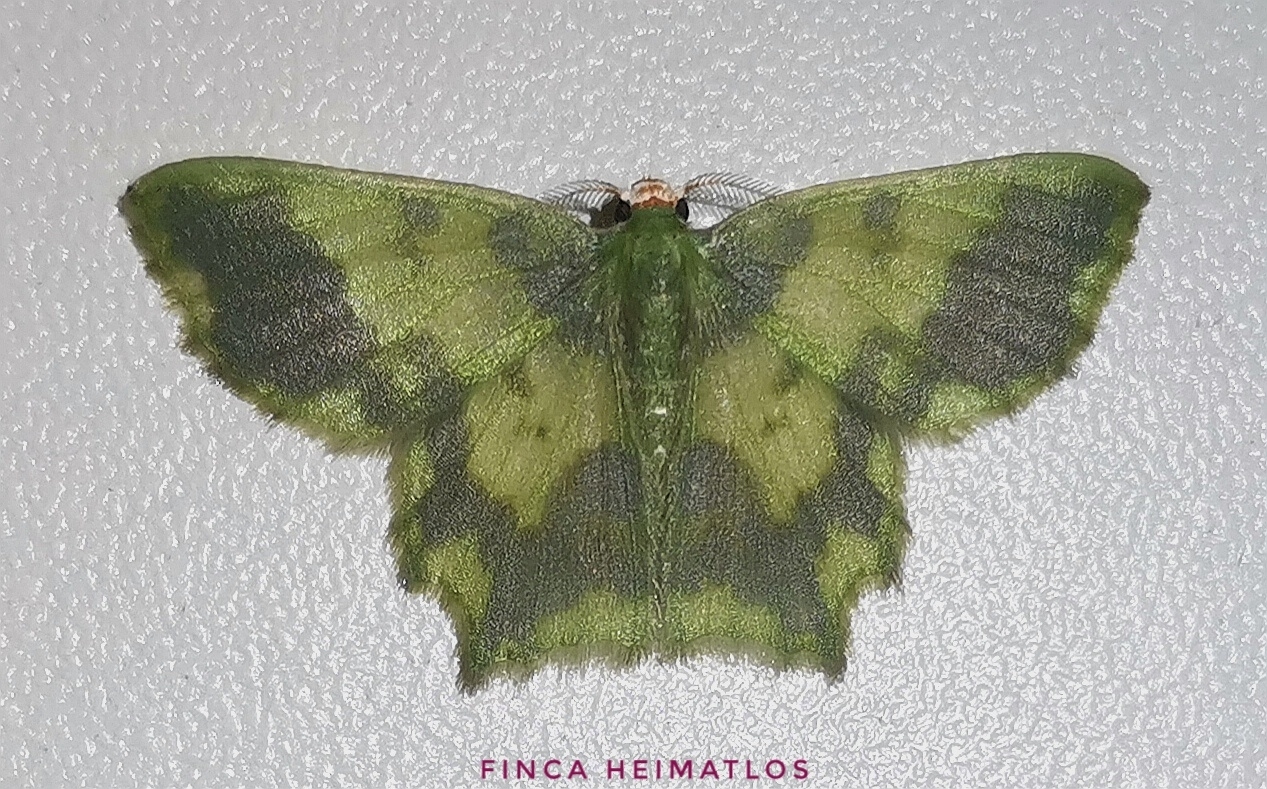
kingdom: Animalia
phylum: Arthropoda
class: Insecta
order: Lepidoptera
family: Geometridae
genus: Cathydata
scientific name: Cathydata batina
